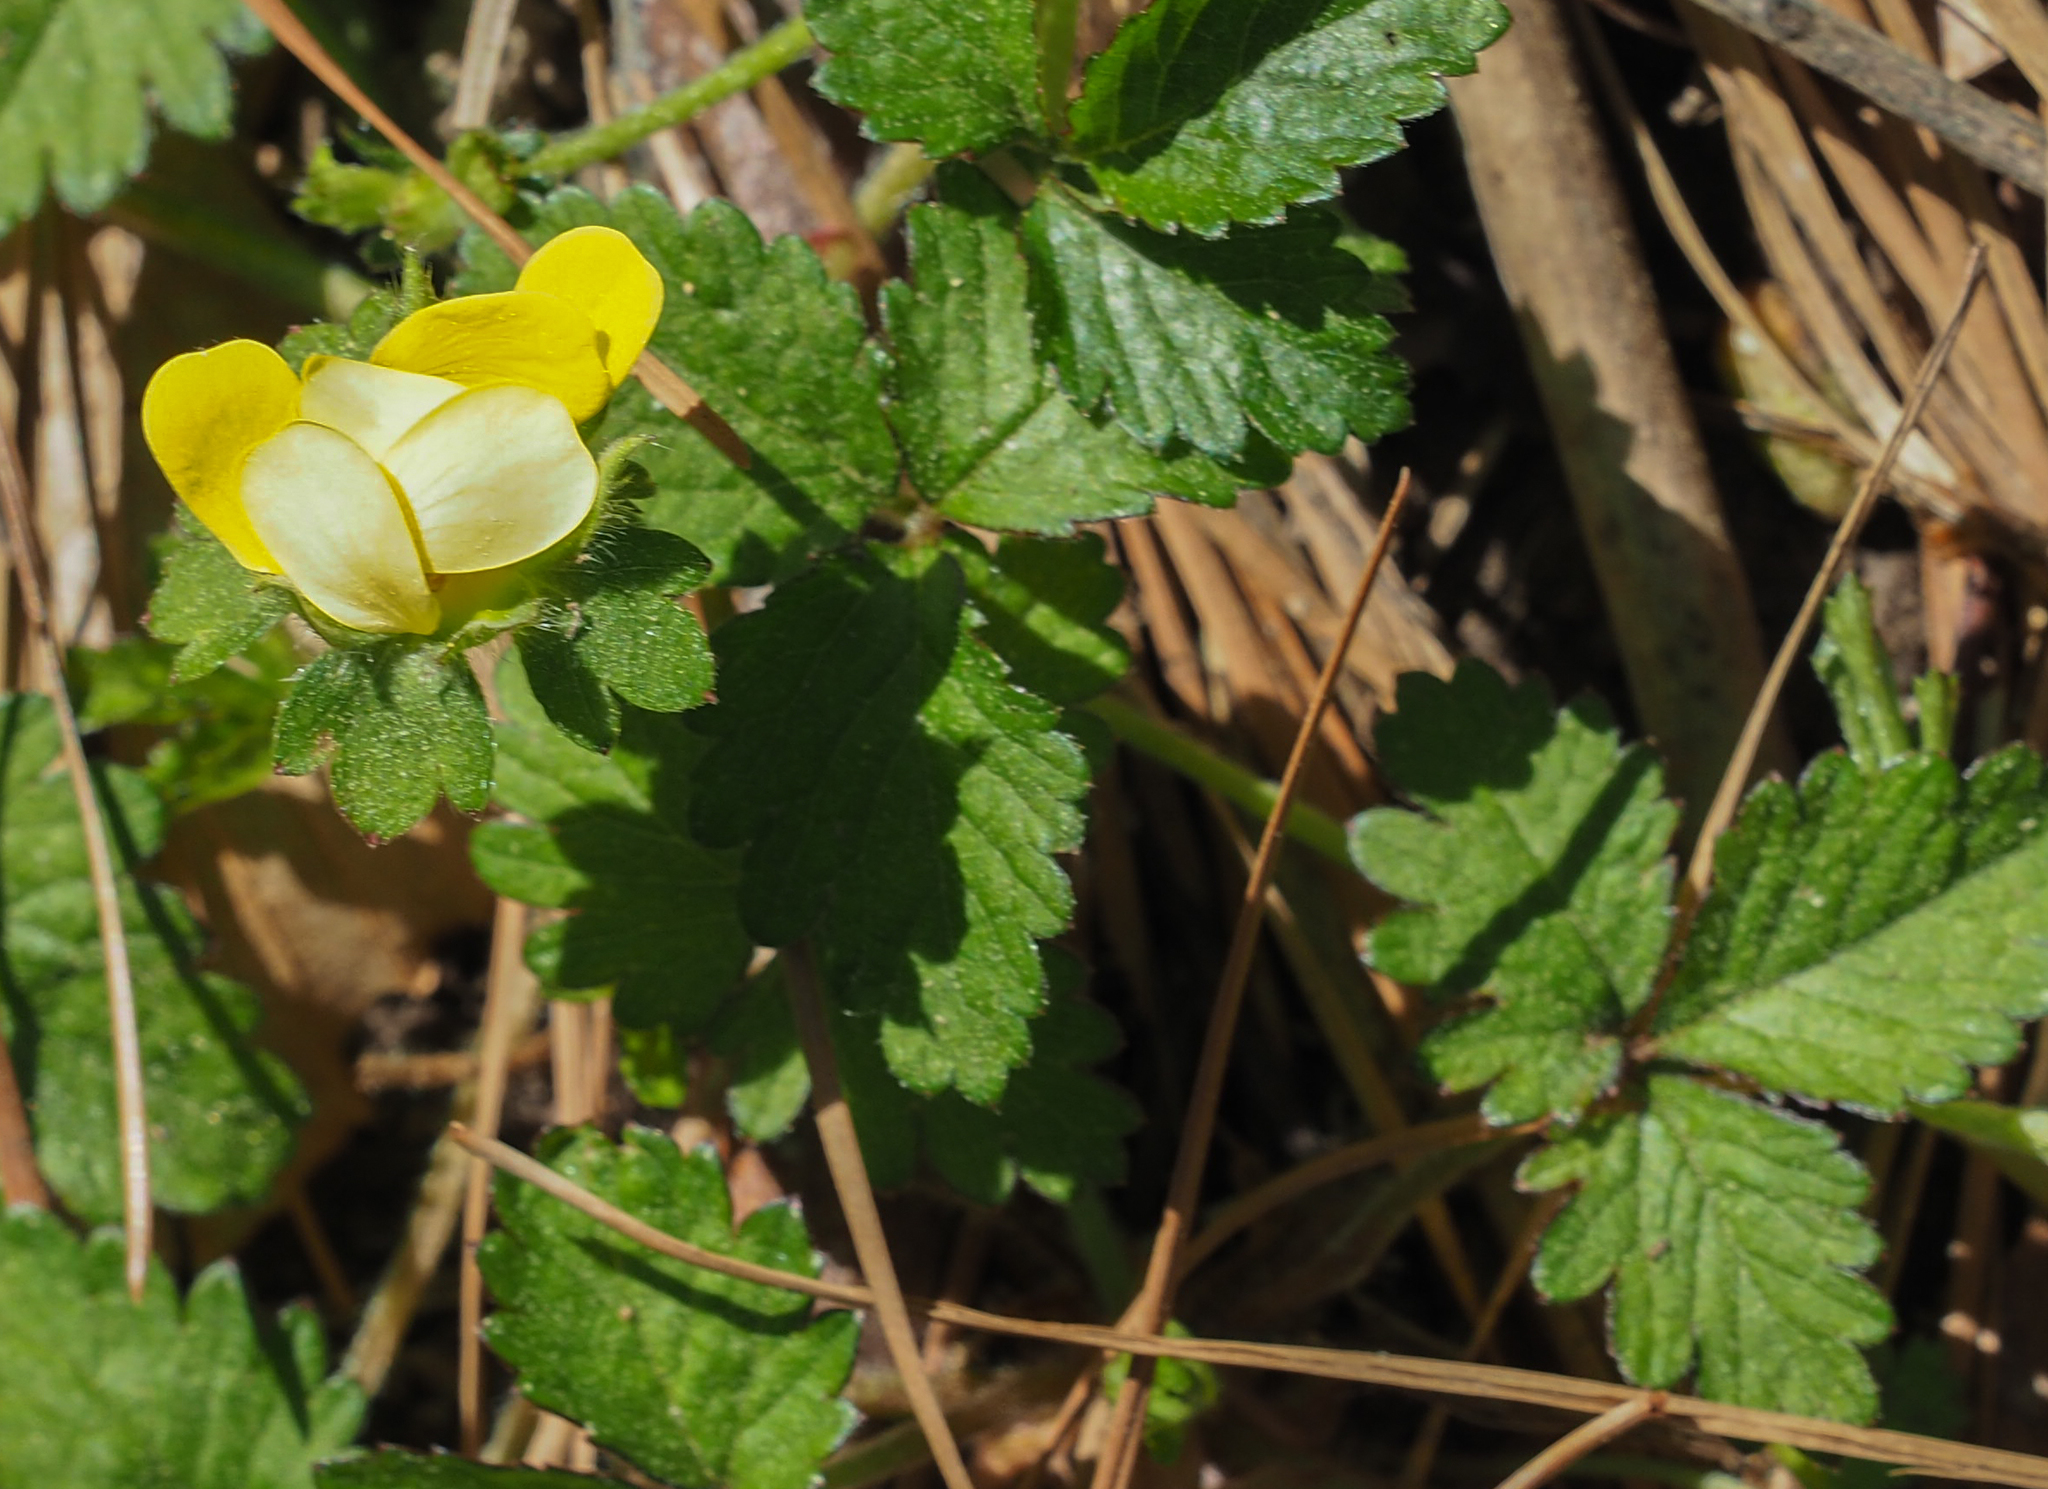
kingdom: Plantae
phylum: Tracheophyta
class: Magnoliopsida
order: Rosales
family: Rosaceae
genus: Potentilla
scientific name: Potentilla indica
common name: Yellow-flowered strawberry
